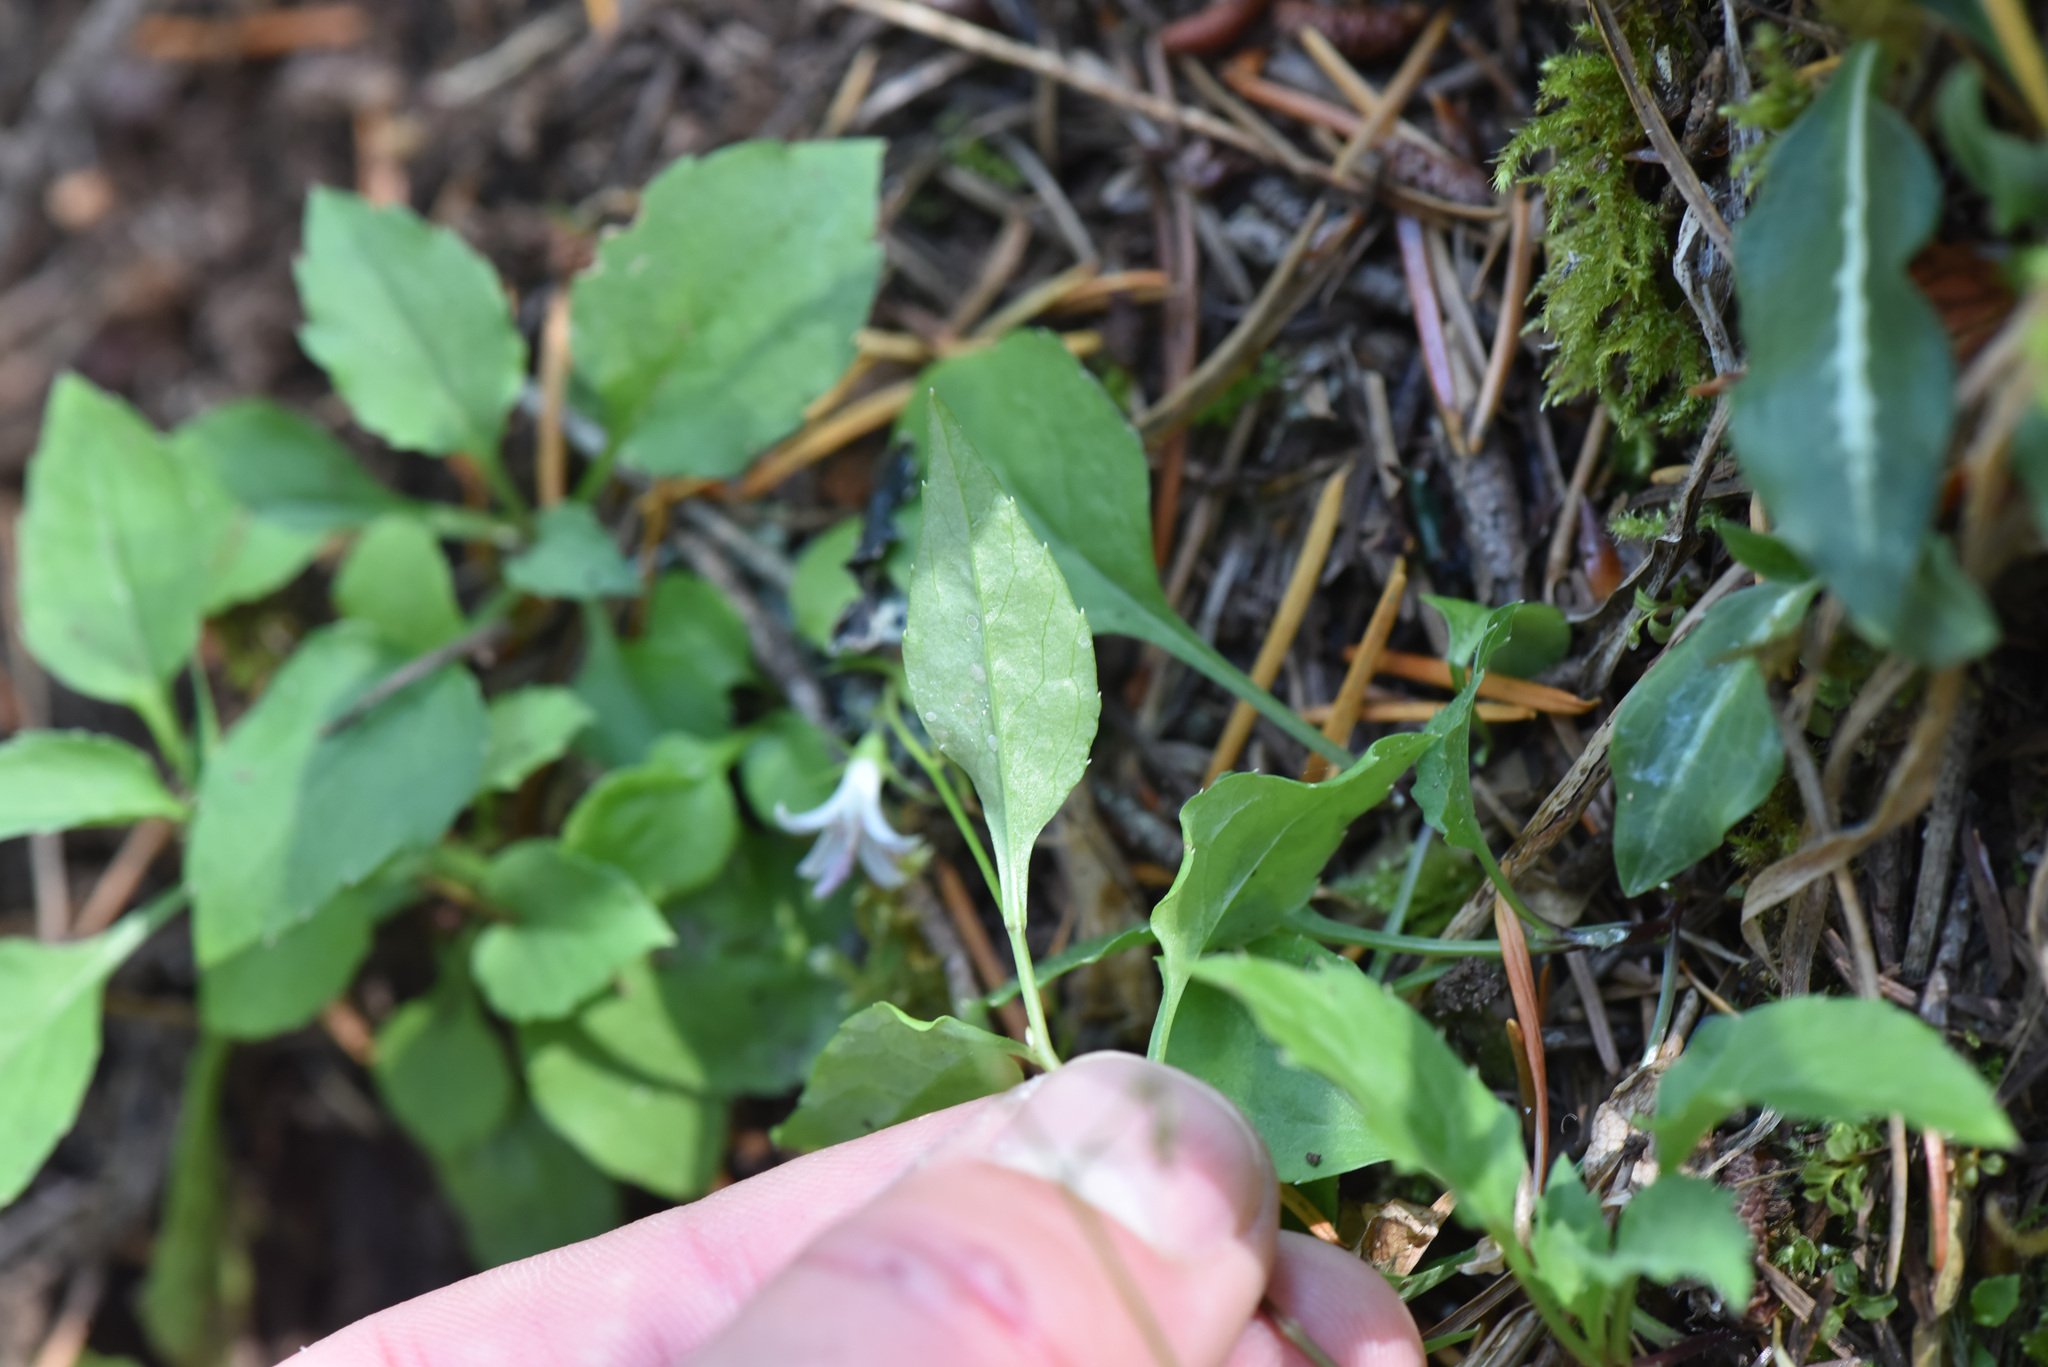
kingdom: Plantae
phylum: Tracheophyta
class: Magnoliopsida
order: Asterales
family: Campanulaceae
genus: Campanula
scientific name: Campanula scouleri
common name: Scouler's harebell
